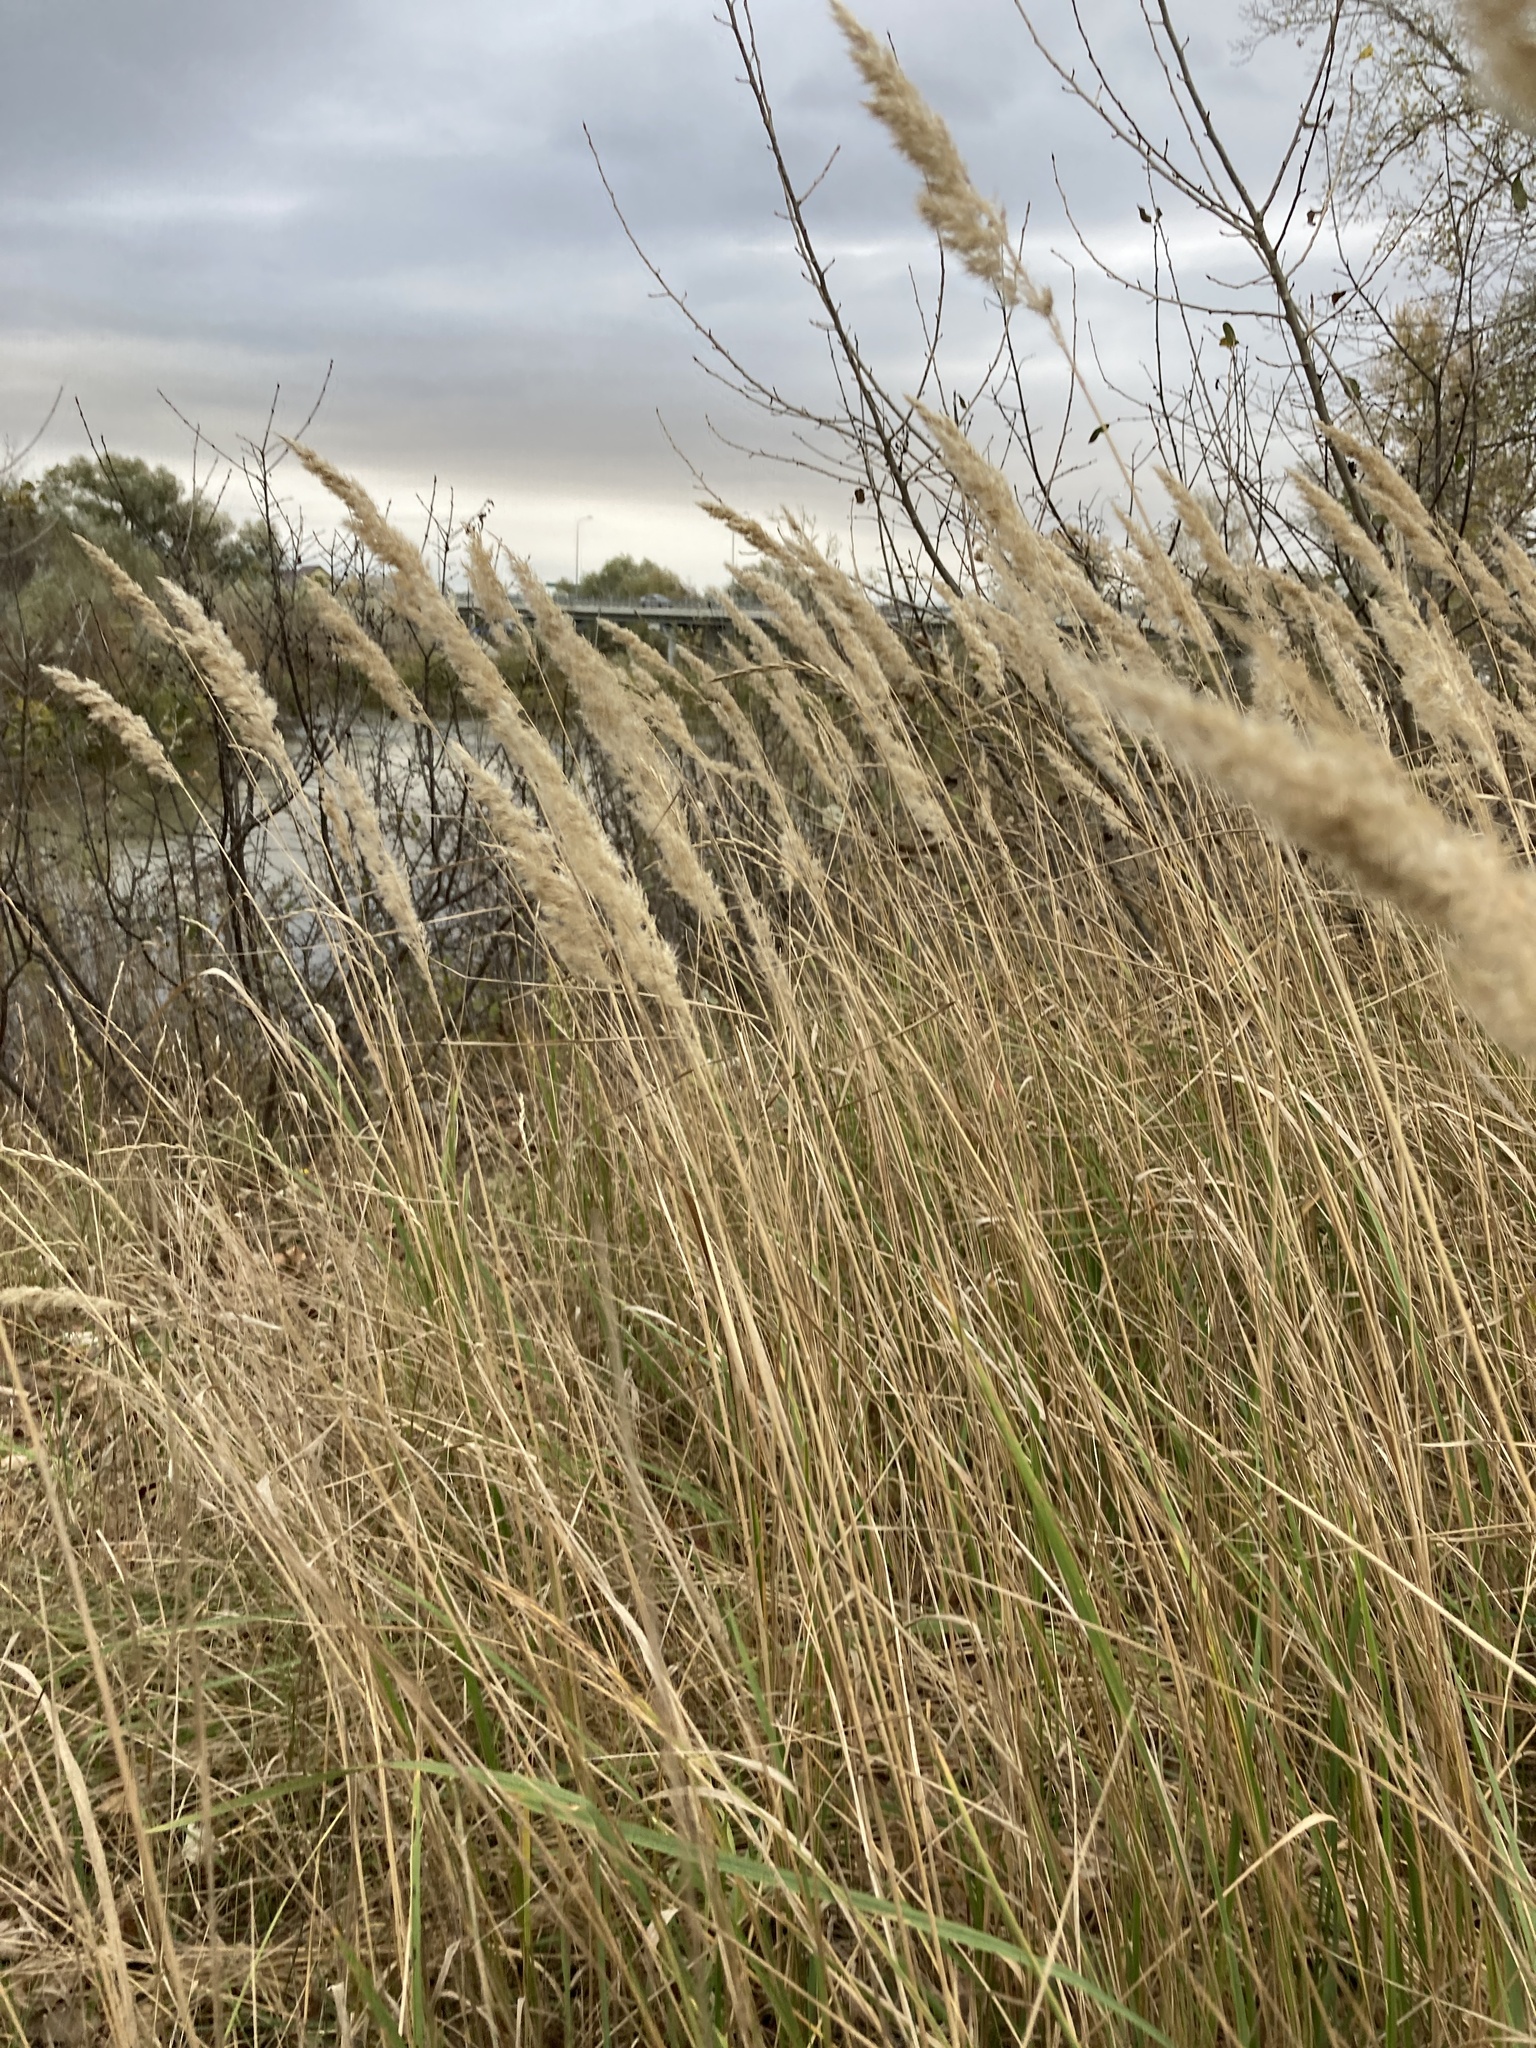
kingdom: Plantae
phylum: Tracheophyta
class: Liliopsida
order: Poales
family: Poaceae
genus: Calamagrostis
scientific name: Calamagrostis epigejos
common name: Wood small-reed
